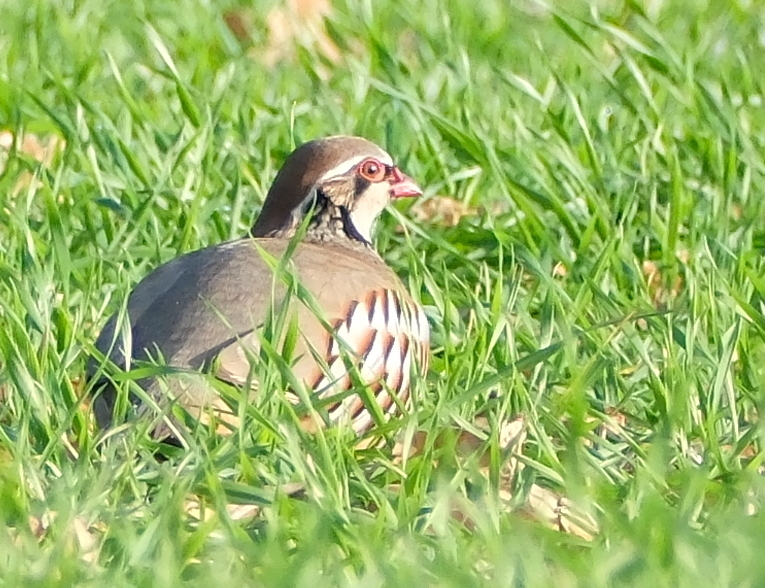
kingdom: Animalia
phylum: Chordata
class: Aves
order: Galliformes
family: Phasianidae
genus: Alectoris
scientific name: Alectoris rufa
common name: Red-legged partridge
